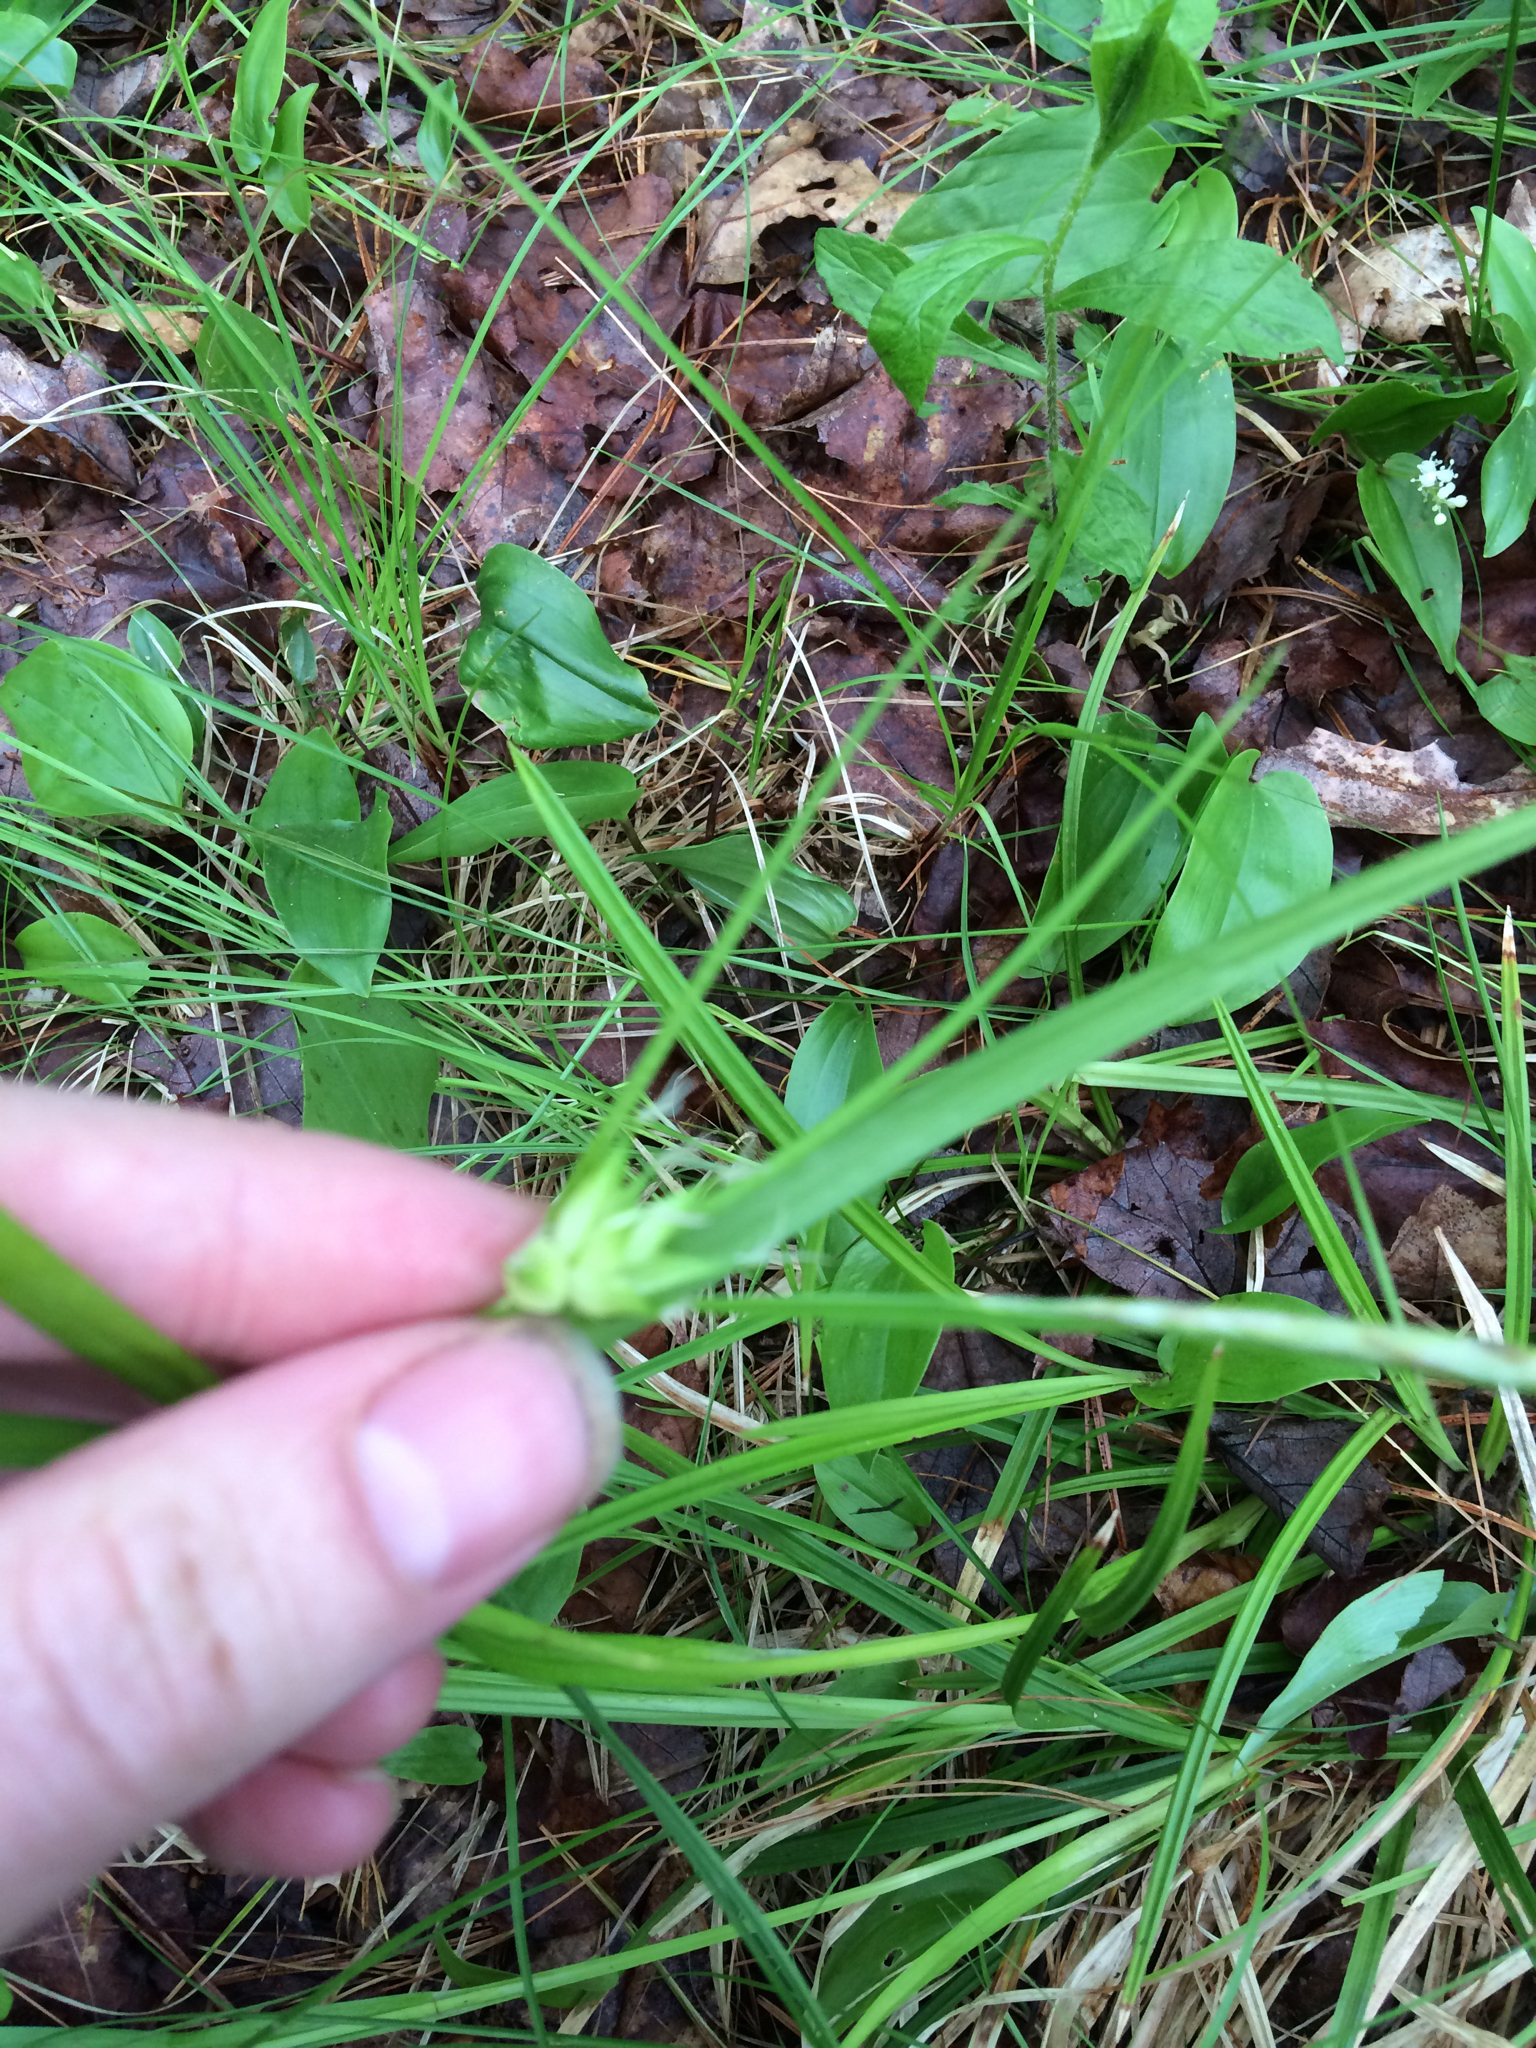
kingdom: Plantae
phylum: Tracheophyta
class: Liliopsida
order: Poales
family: Cyperaceae
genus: Carex
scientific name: Carex intumescens
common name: Greater bladder sedge
